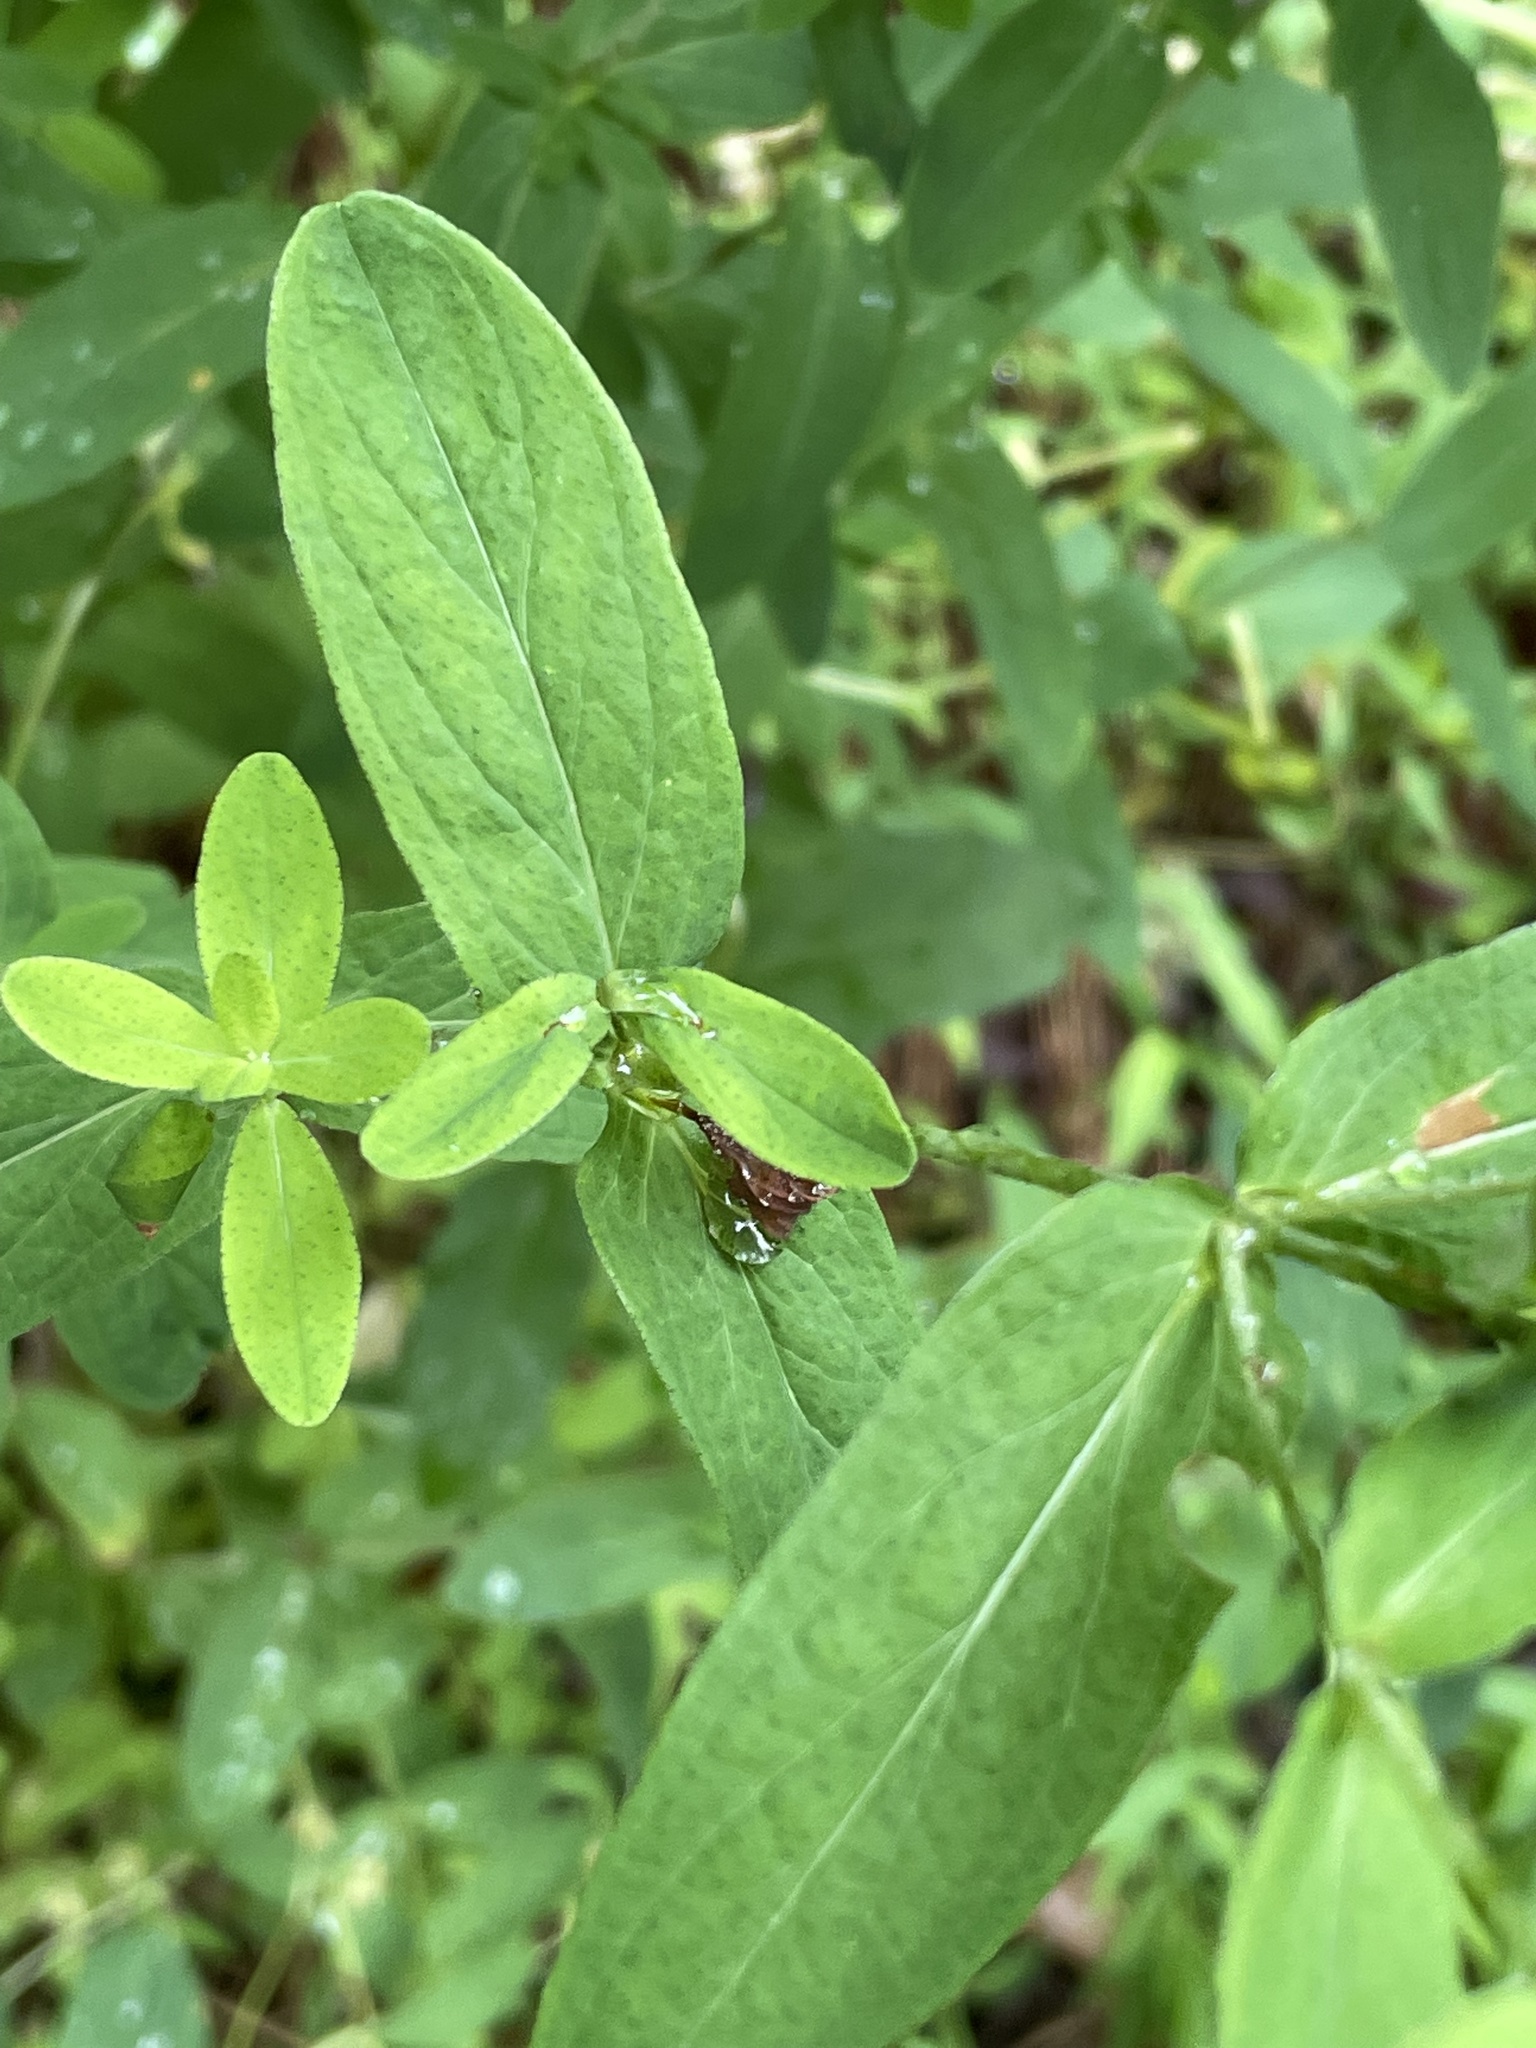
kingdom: Plantae
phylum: Tracheophyta
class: Magnoliopsida
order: Malpighiales
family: Hypericaceae
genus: Hypericum
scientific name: Hypericum punctatum
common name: Spotted st. john's-wort
